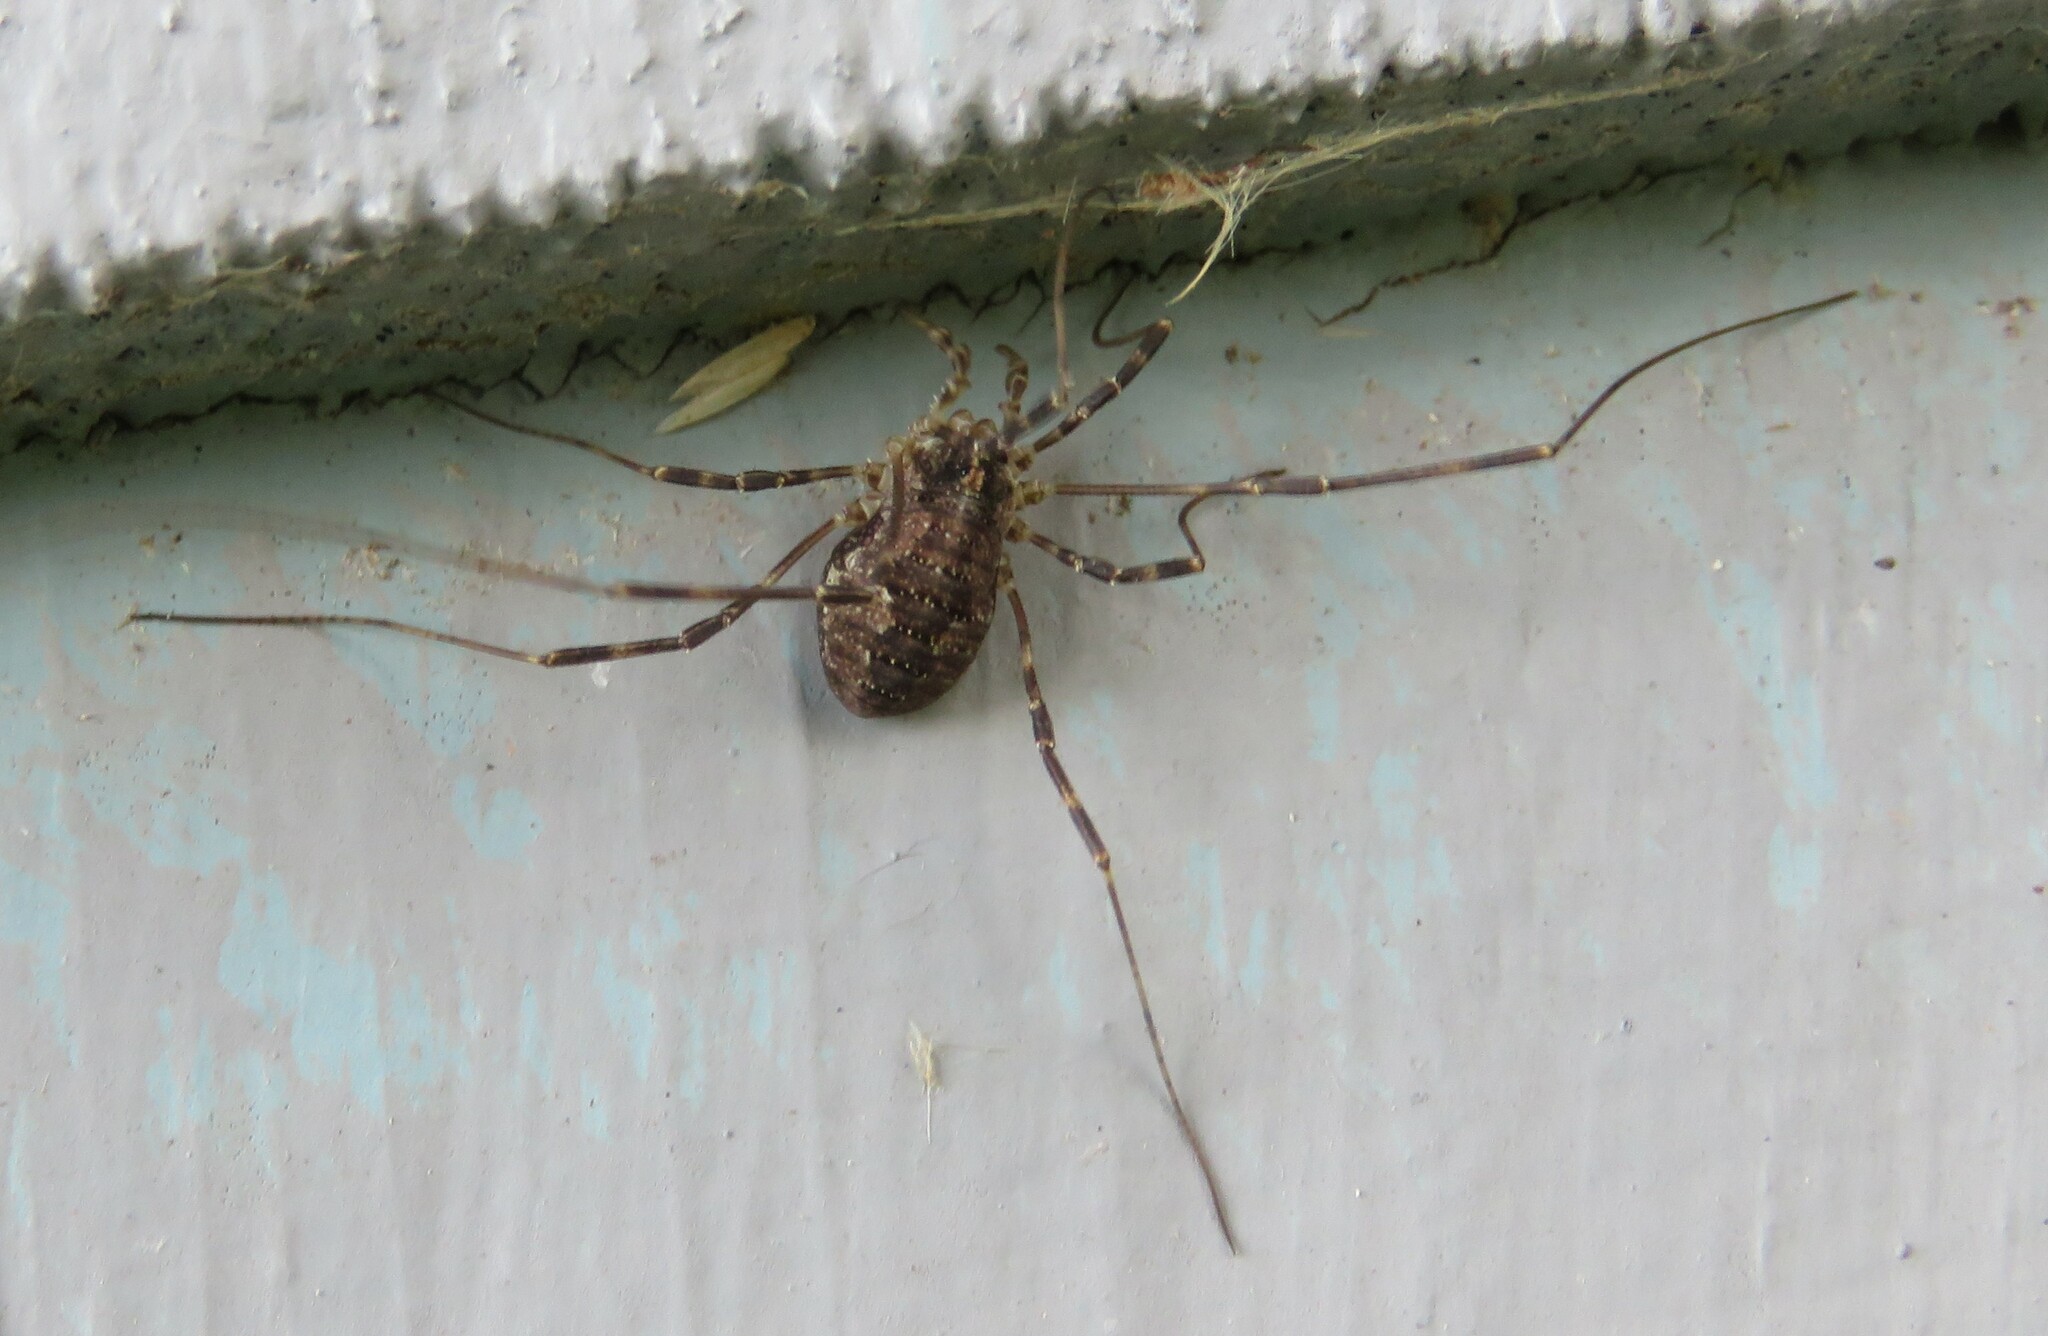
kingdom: Animalia
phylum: Arthropoda
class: Arachnida
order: Opiliones
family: Phalangiidae
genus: Odiellus
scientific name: Odiellus pictus
